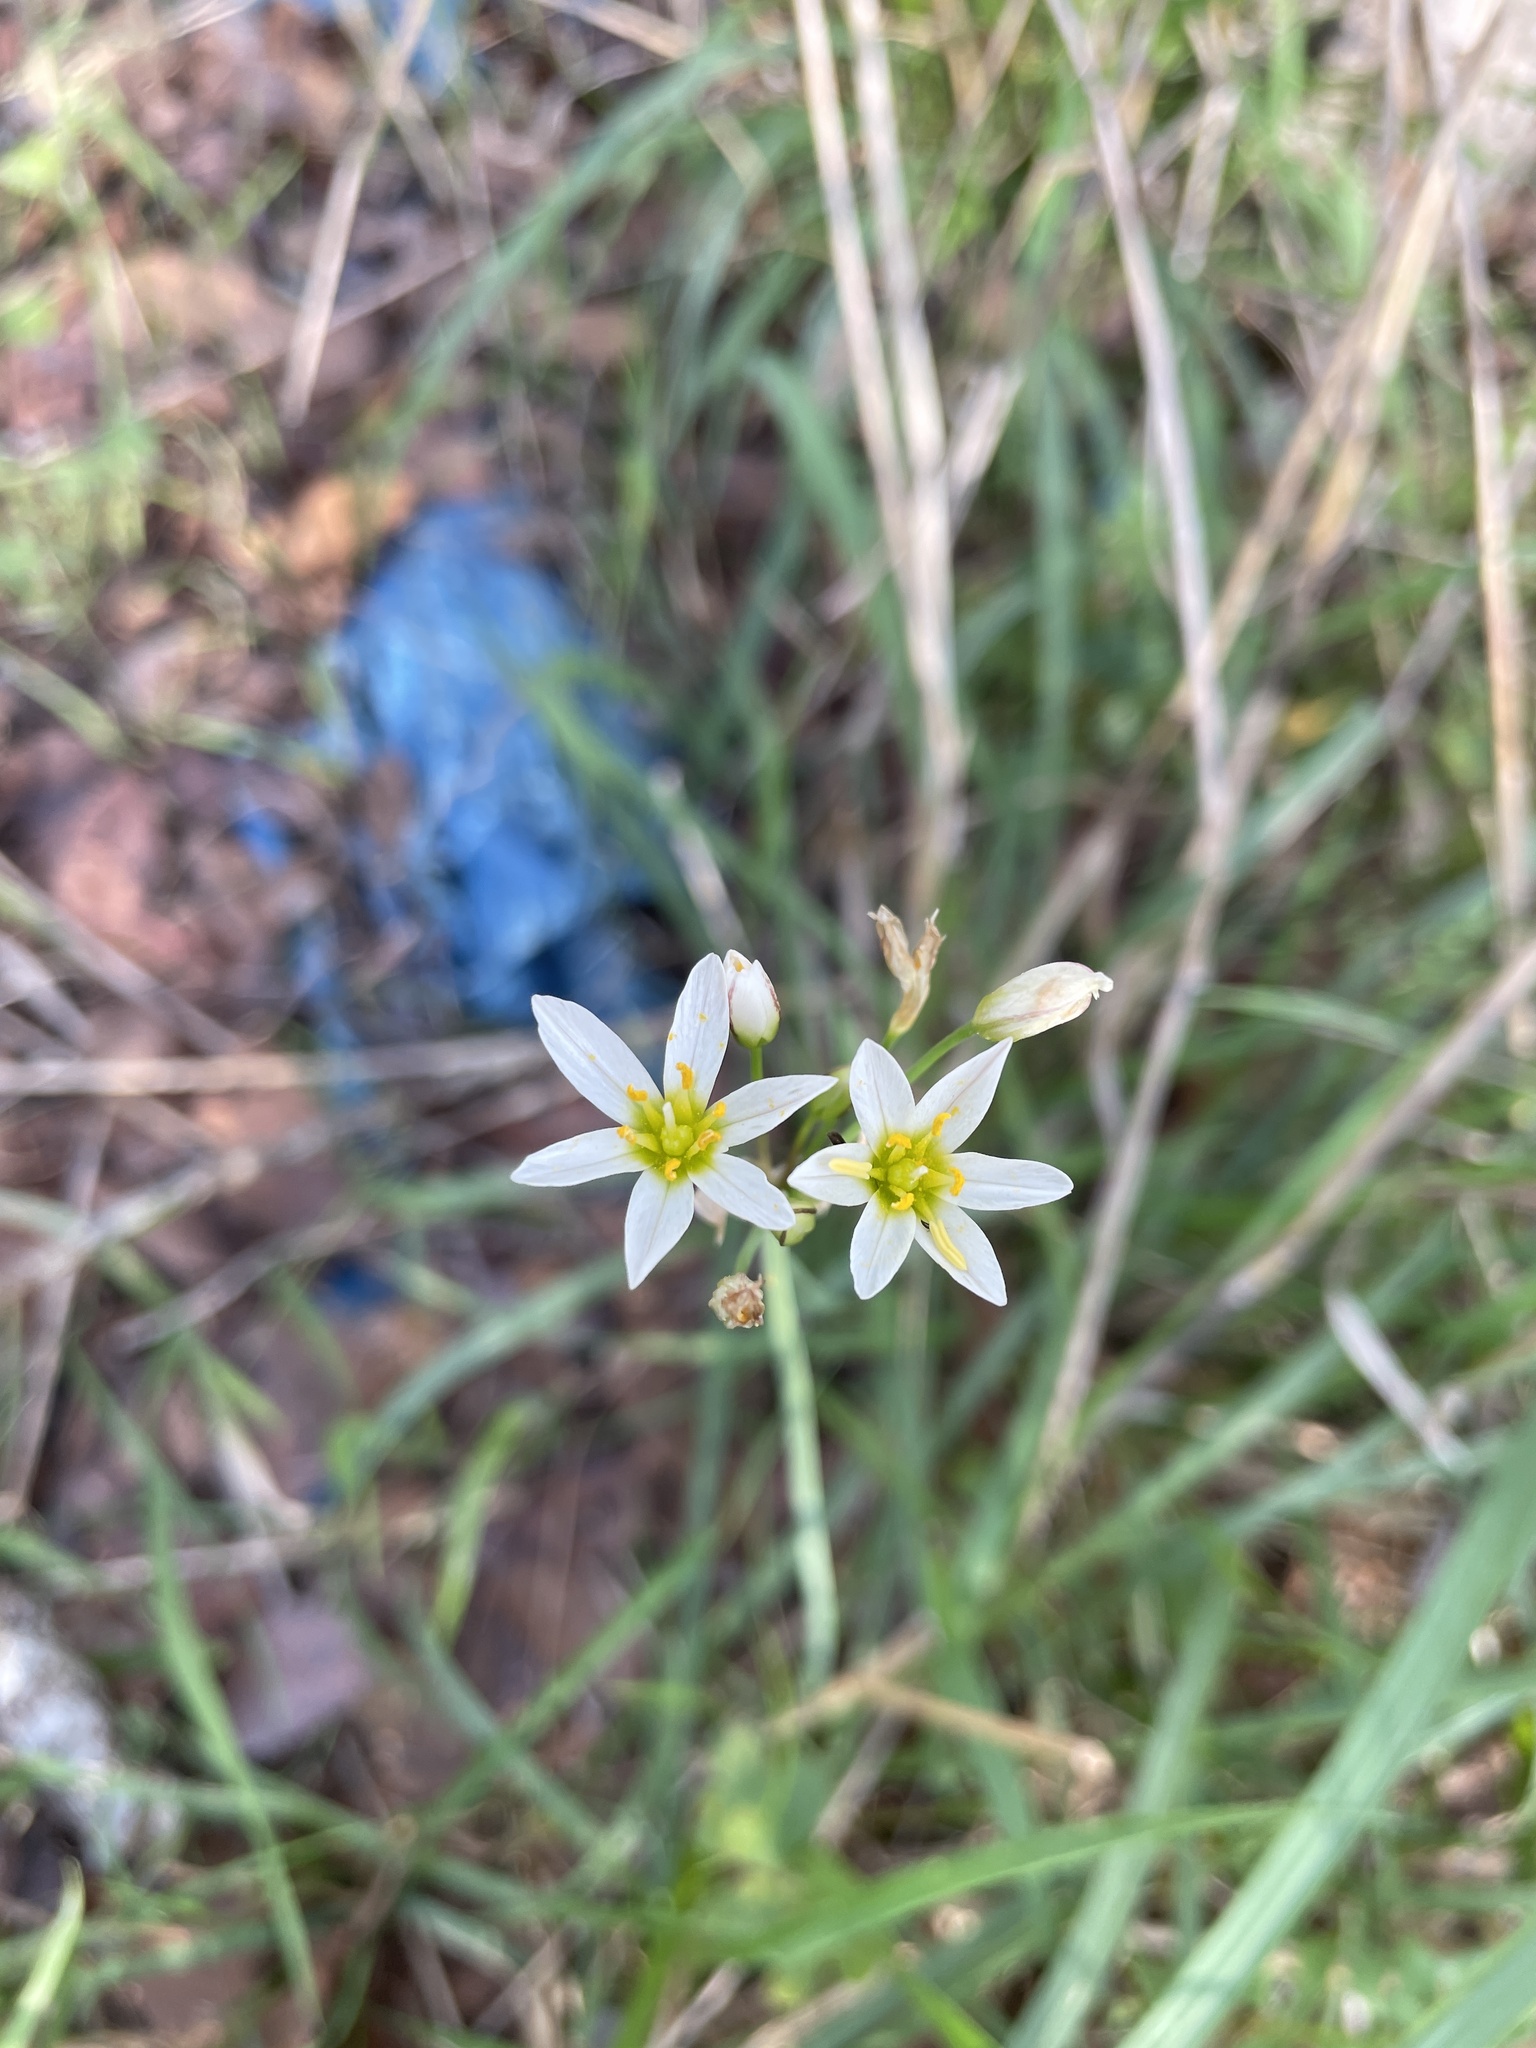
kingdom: Plantae
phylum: Tracheophyta
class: Liliopsida
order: Asparagales
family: Amaryllidaceae
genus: Nothoscordum
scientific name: Nothoscordum bivalve
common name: Crow-poison
